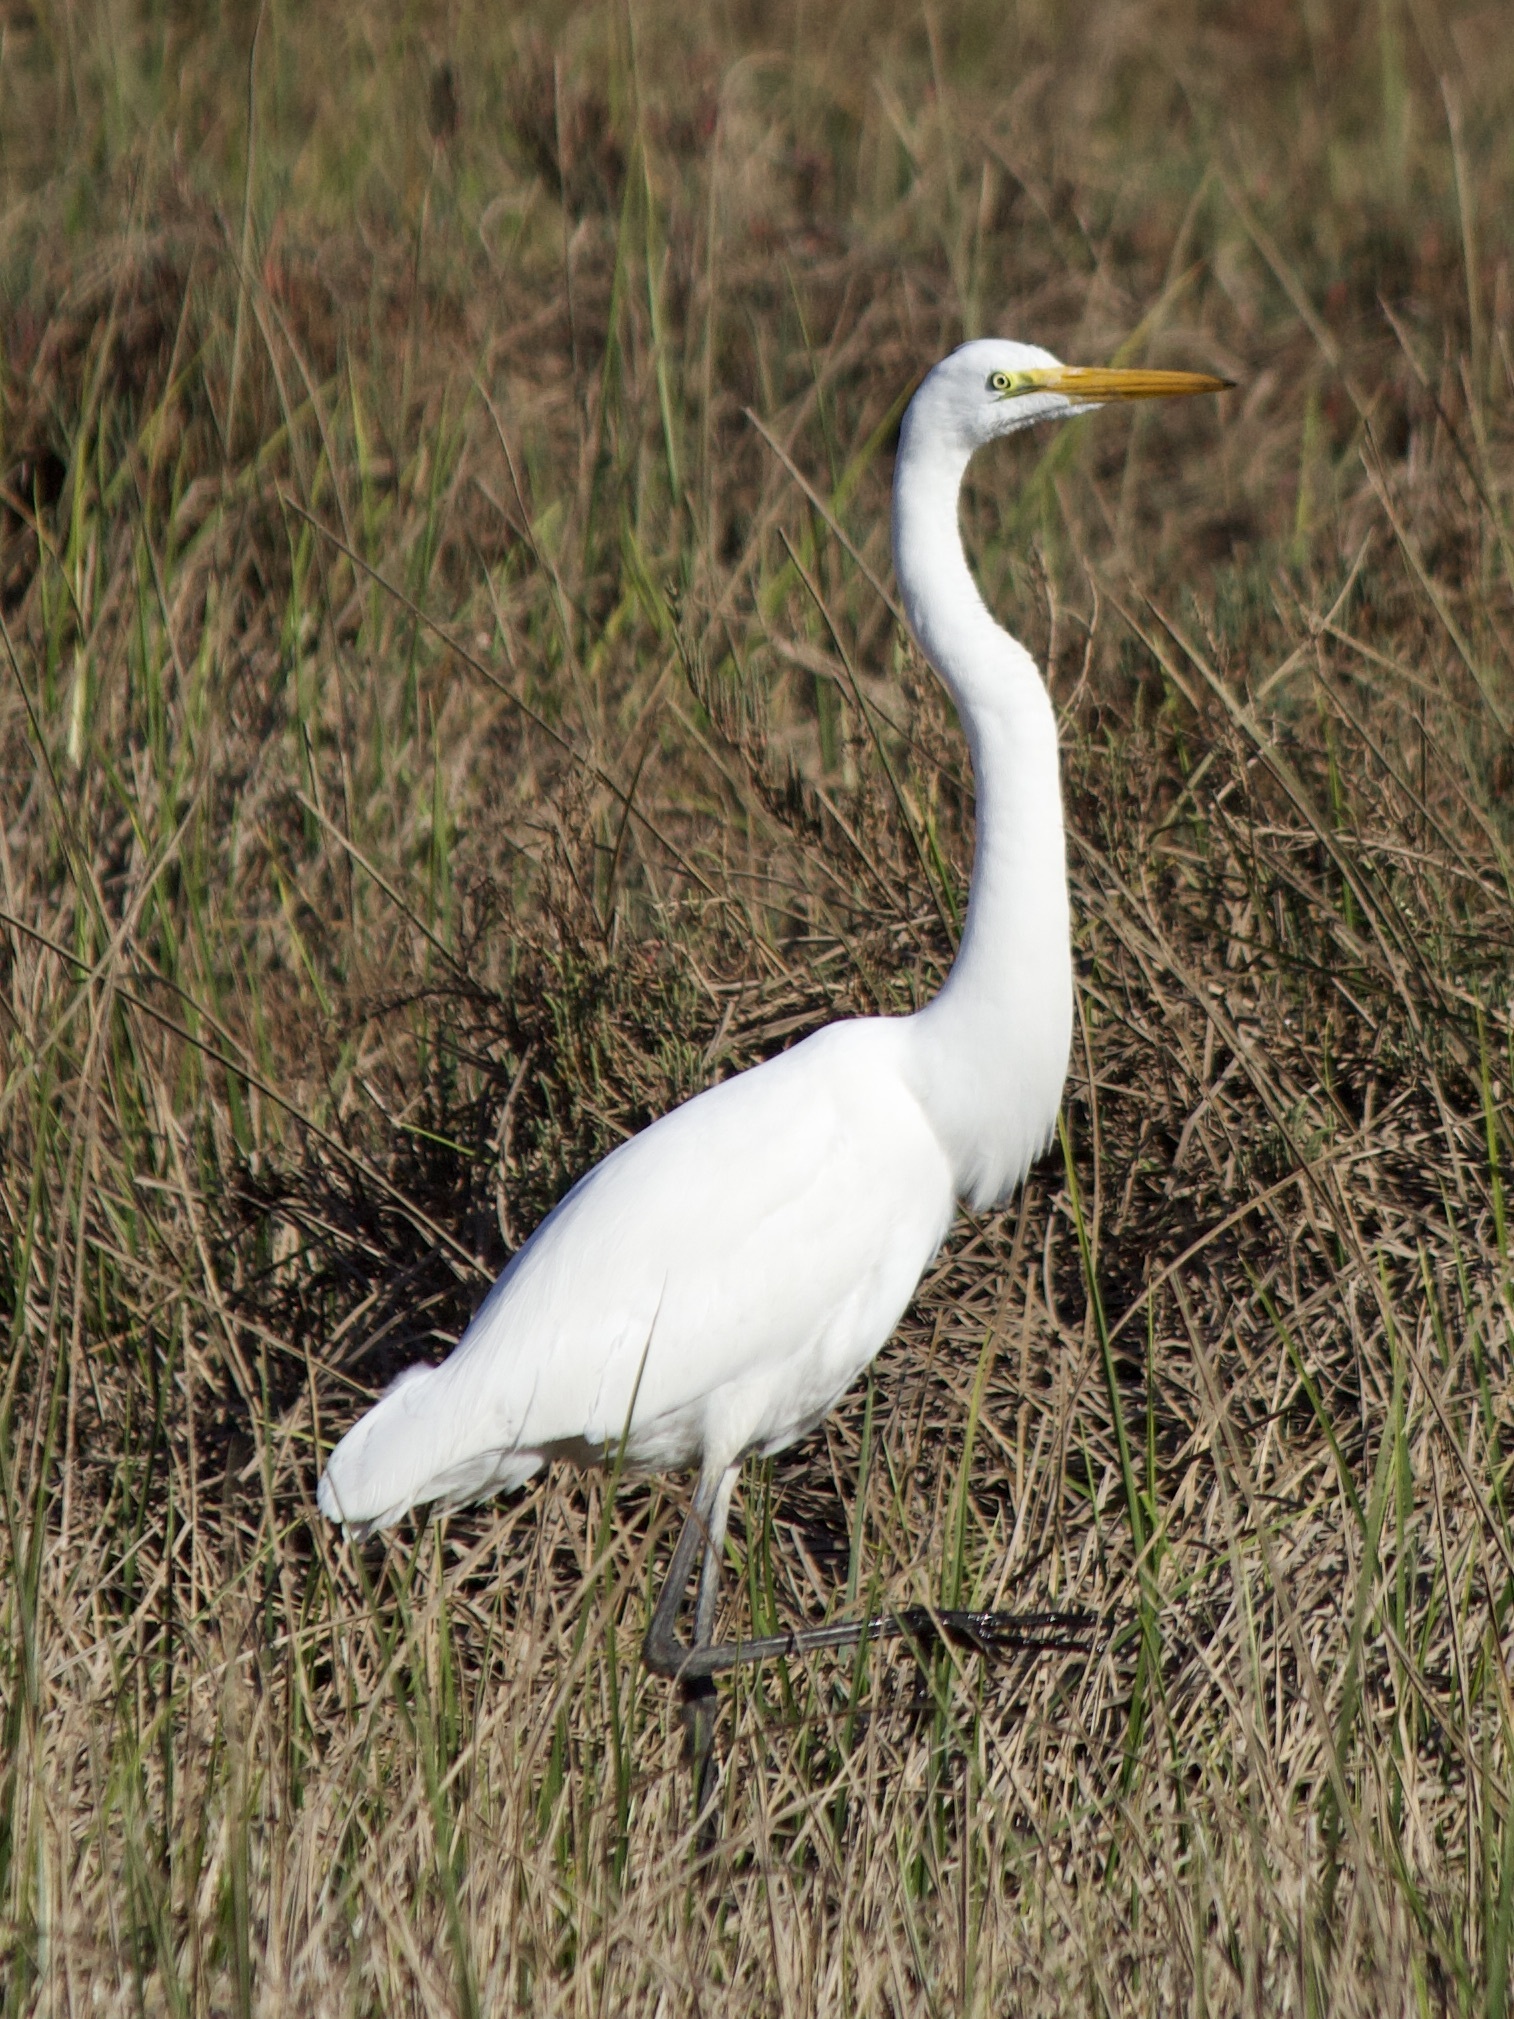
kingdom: Animalia
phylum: Chordata
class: Aves
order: Pelecaniformes
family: Ardeidae
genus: Ardea
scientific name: Ardea alba
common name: Great egret
